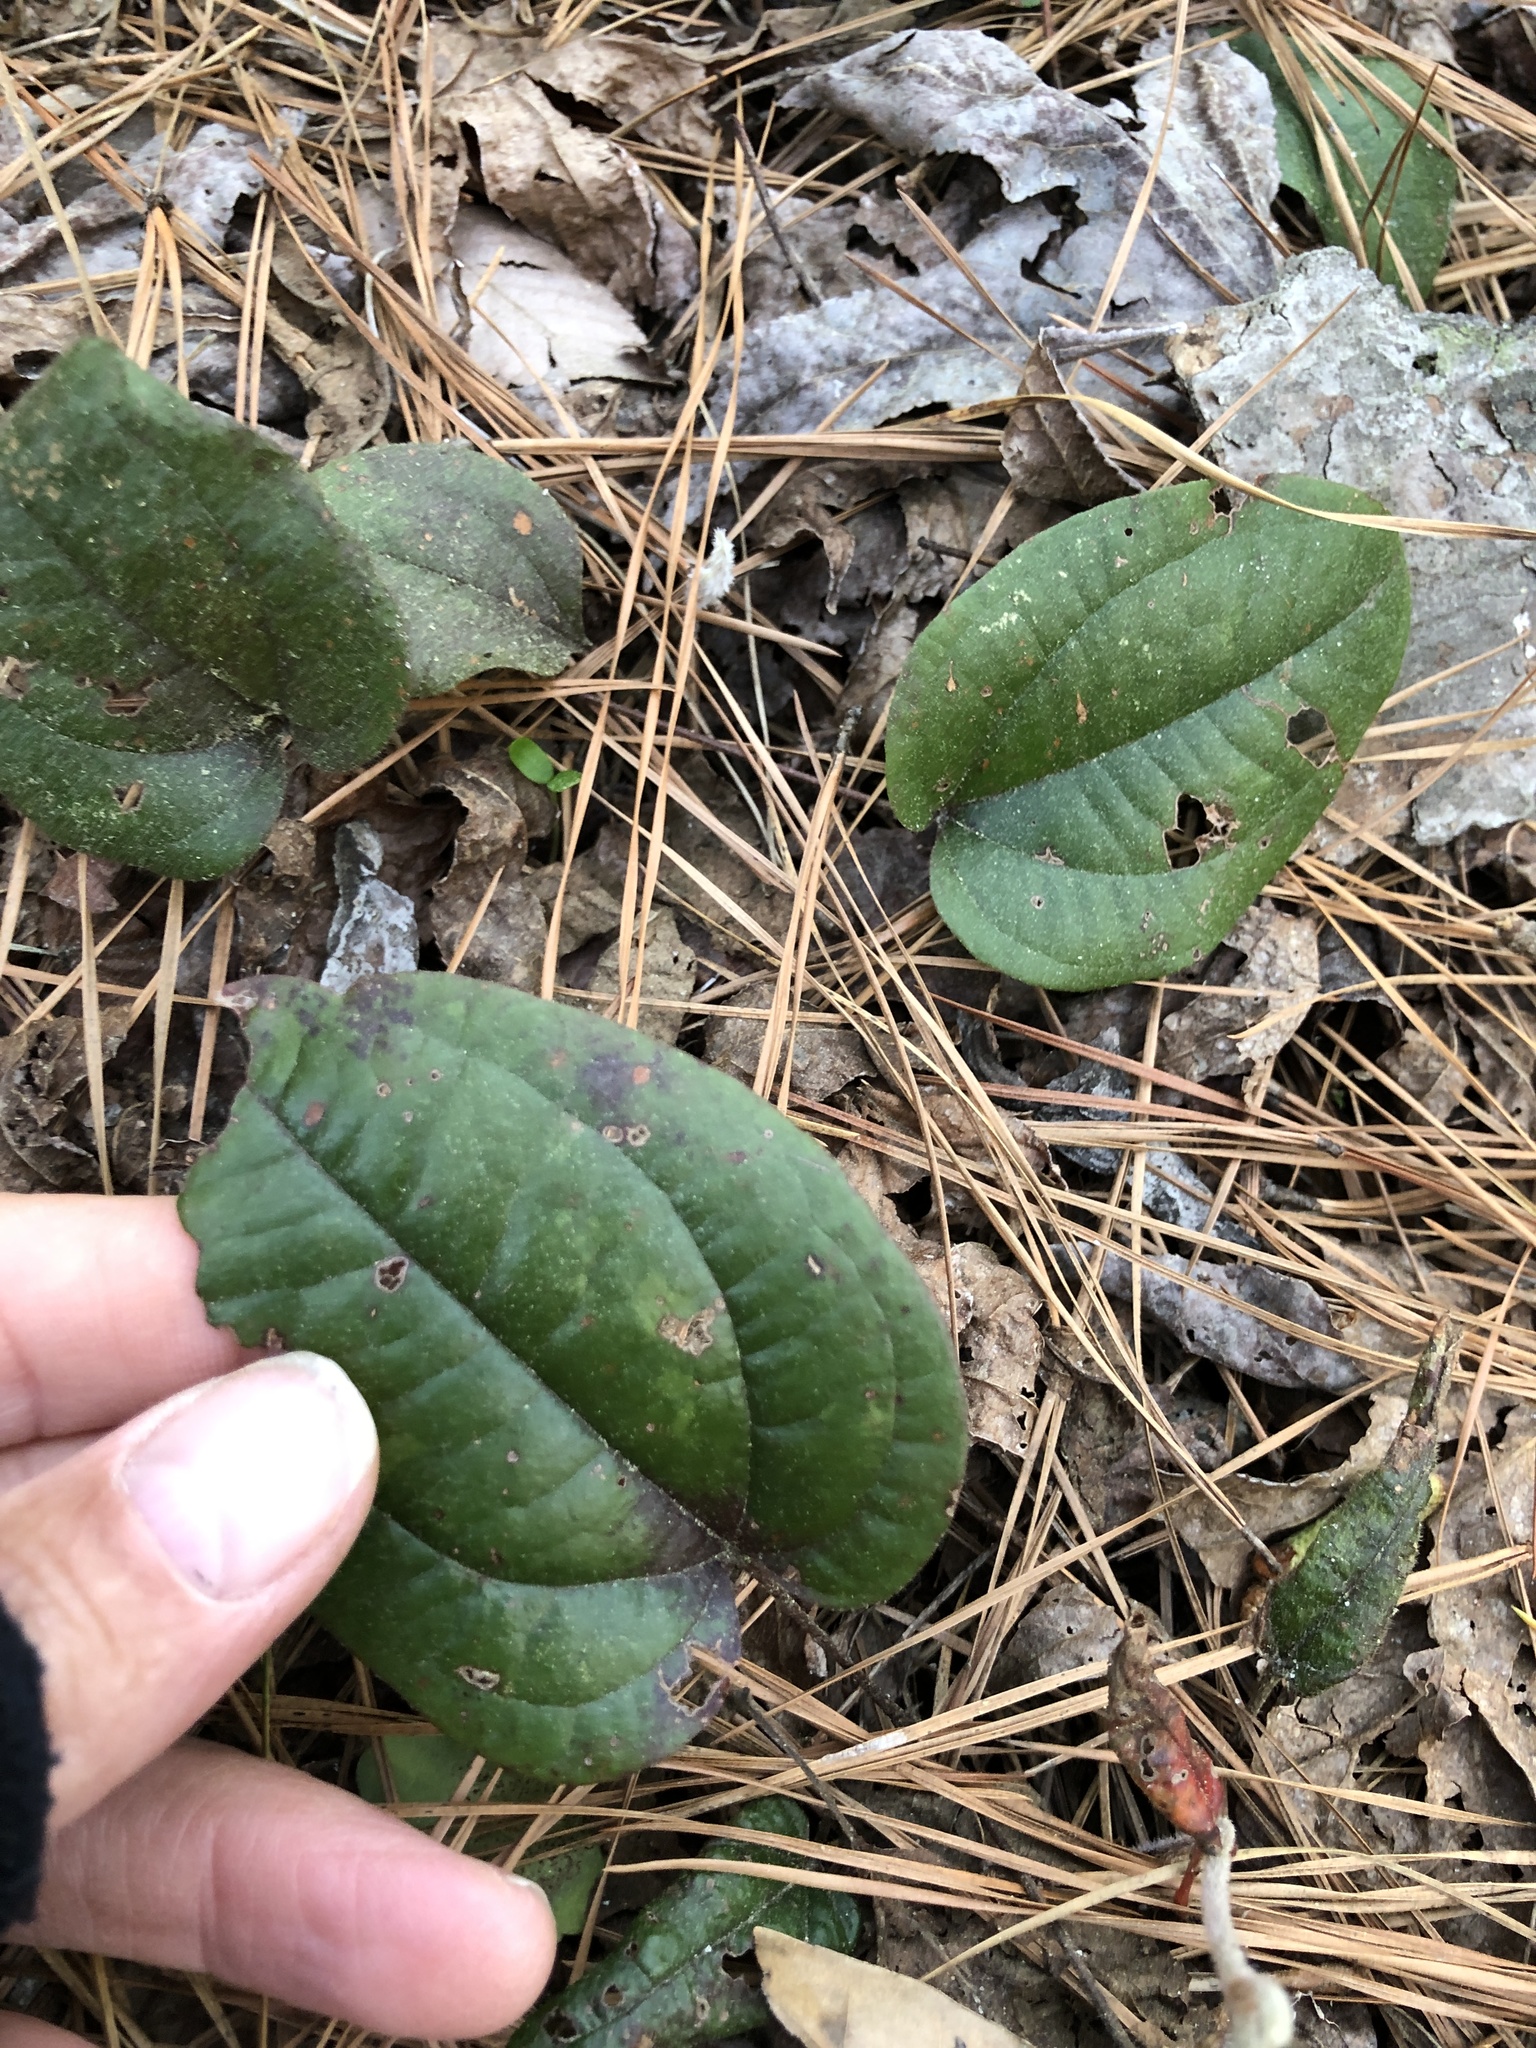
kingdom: Plantae
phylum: Tracheophyta
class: Liliopsida
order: Liliales
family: Smilacaceae
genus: Smilax
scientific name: Smilax pumila
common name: Sarsaparilla-vine
